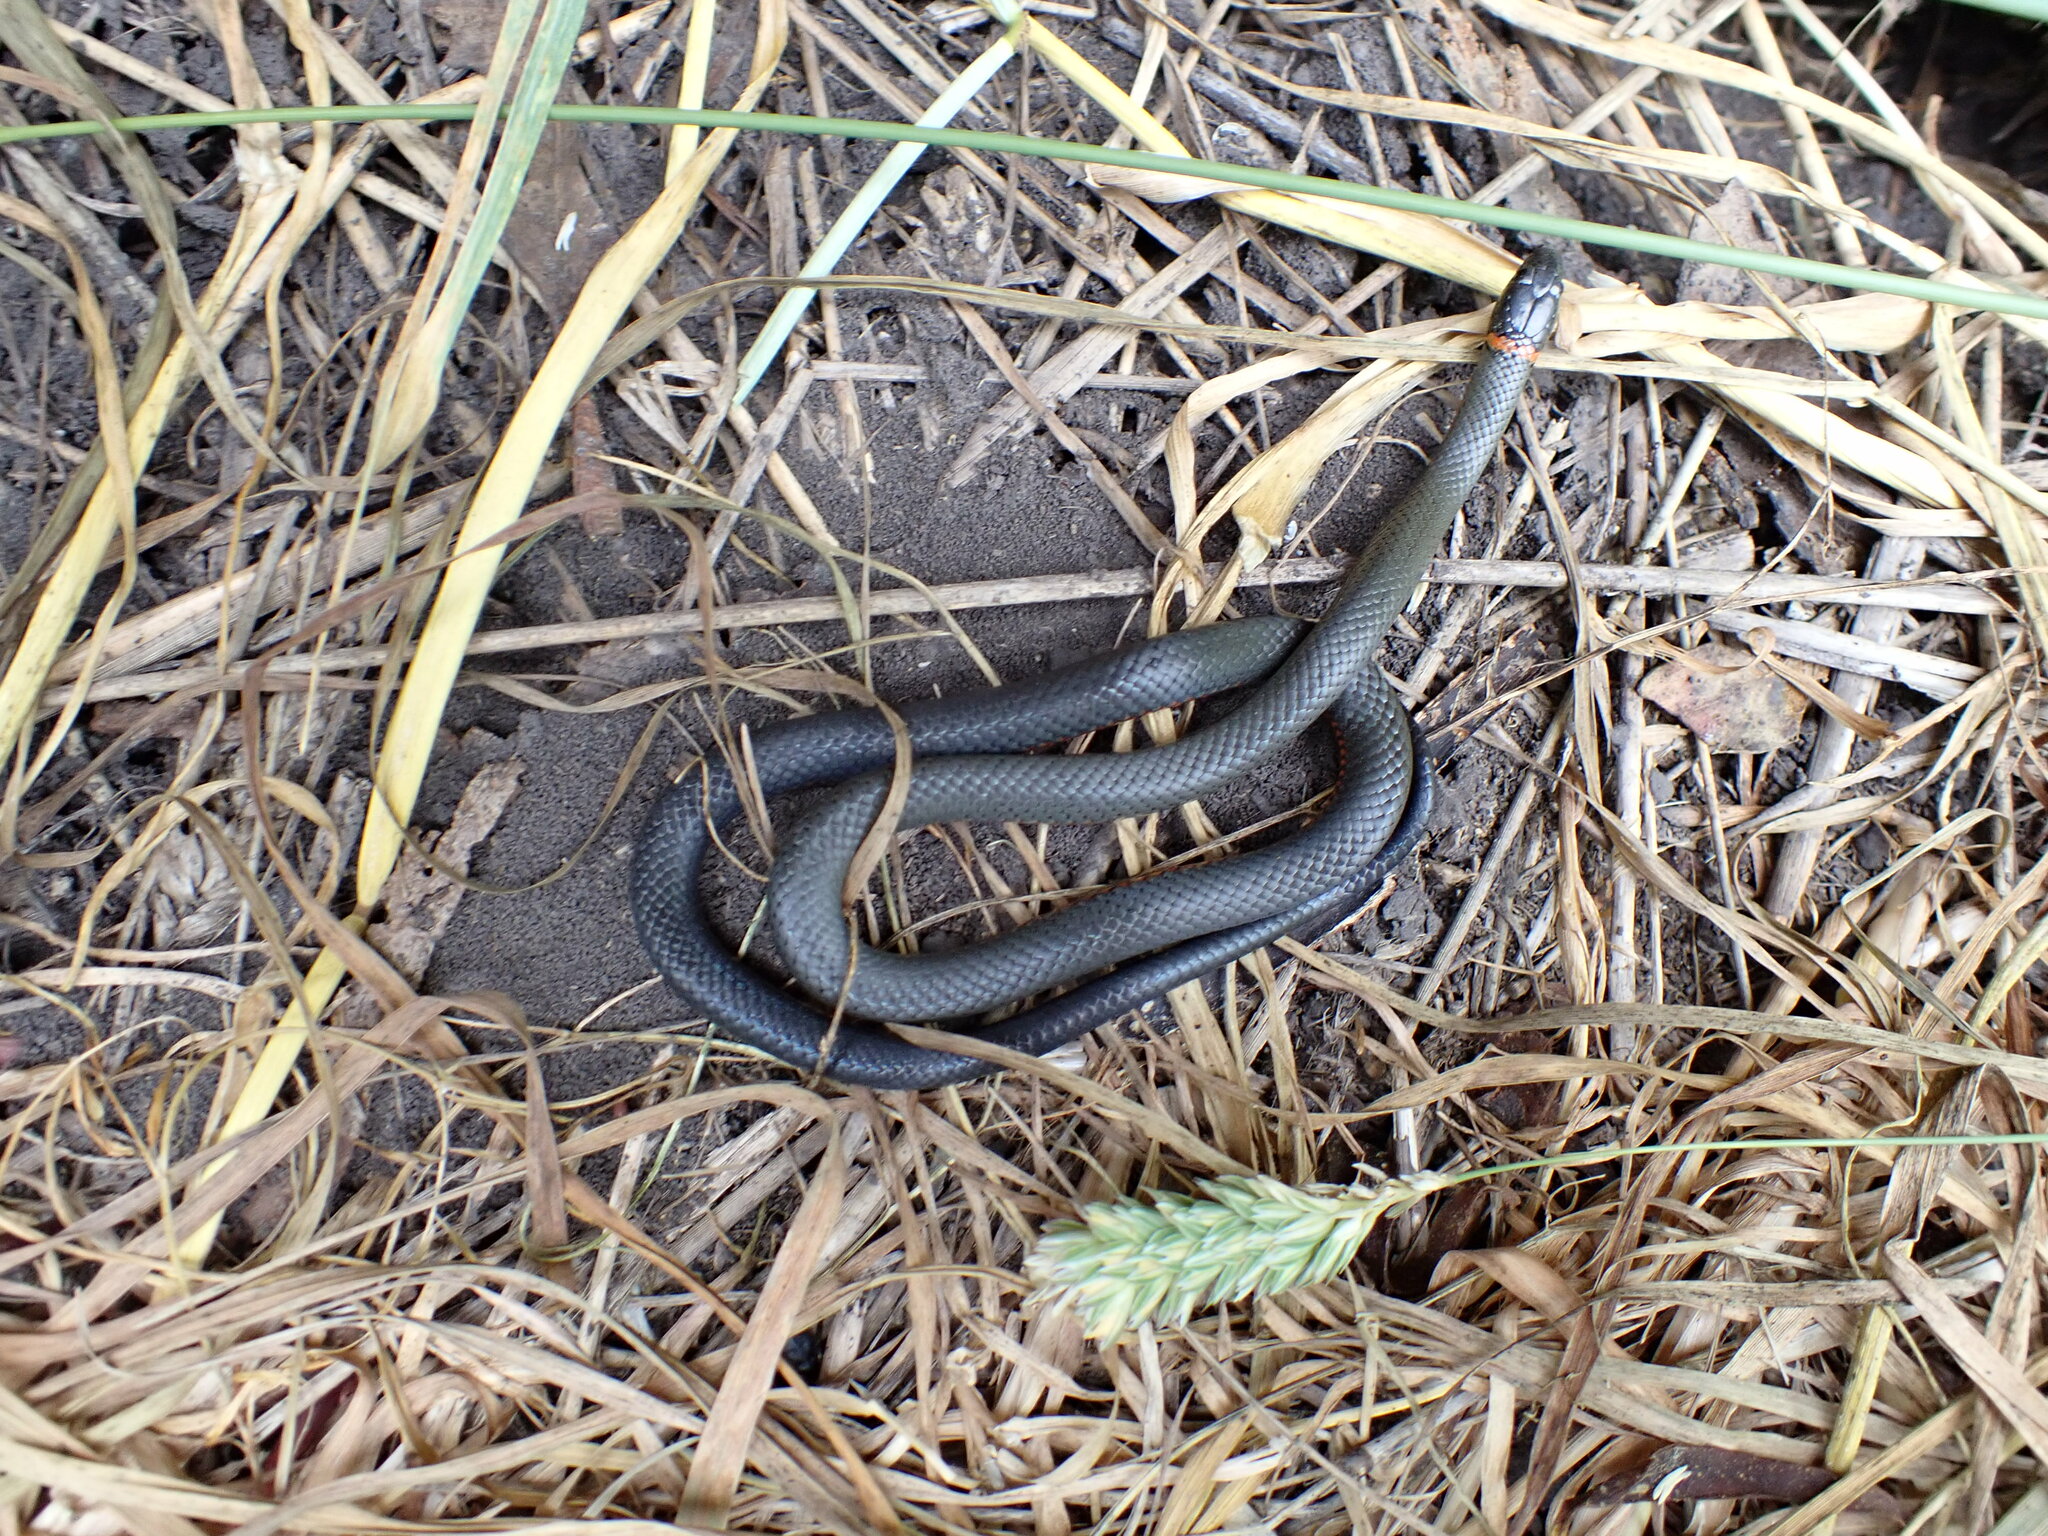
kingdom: Animalia
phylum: Chordata
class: Squamata
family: Colubridae
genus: Diadophis
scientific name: Diadophis punctatus
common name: Ringneck snake
